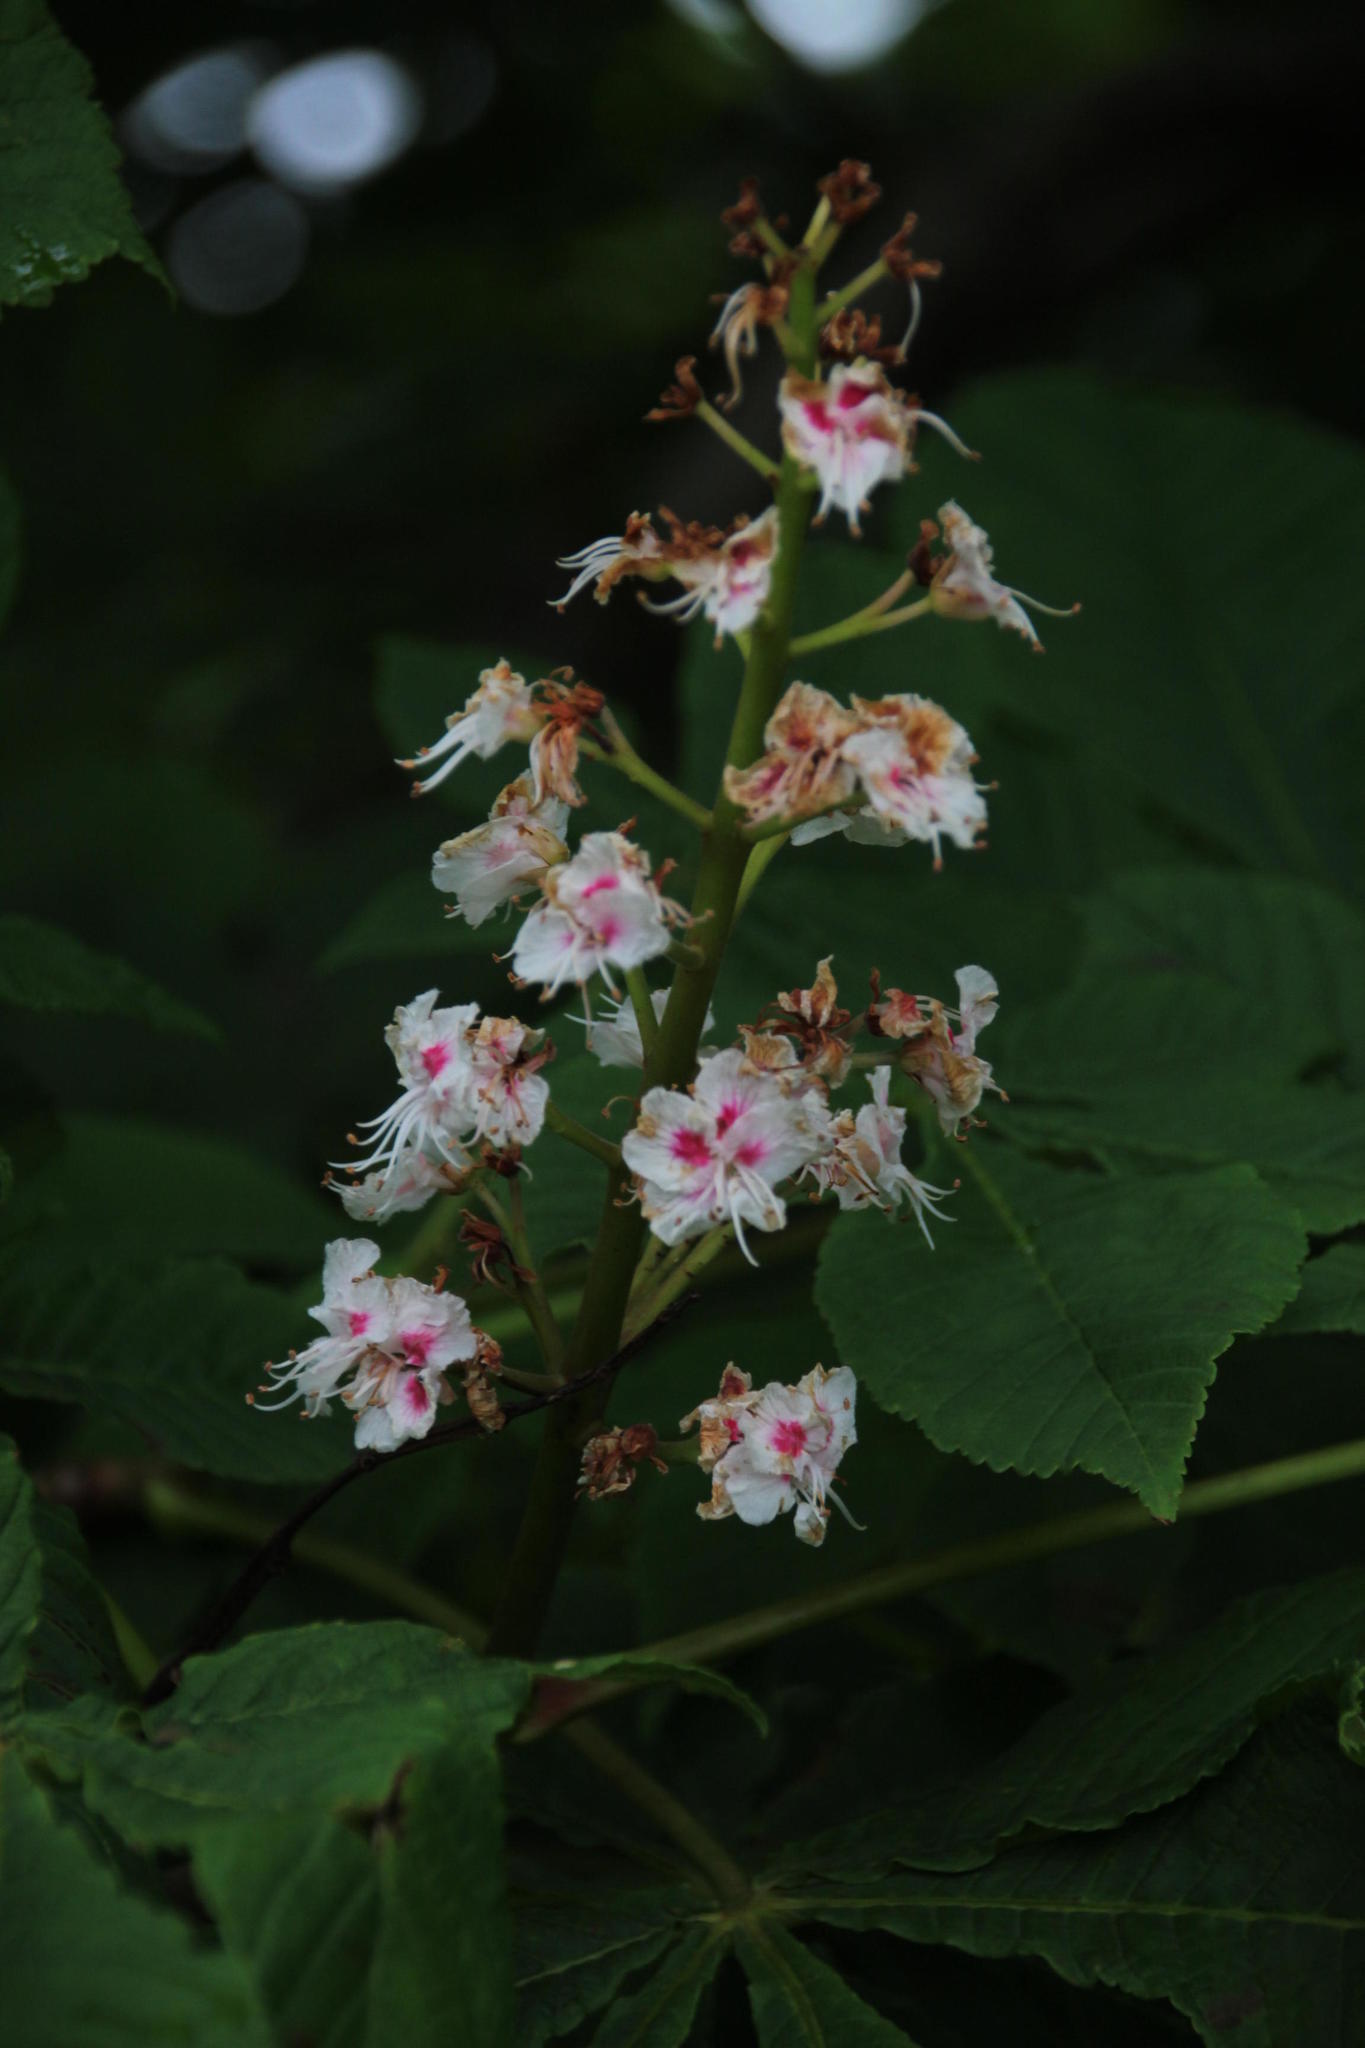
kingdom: Plantae
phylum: Tracheophyta
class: Magnoliopsida
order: Sapindales
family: Sapindaceae
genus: Aesculus
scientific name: Aesculus hippocastanum
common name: Horse-chestnut
